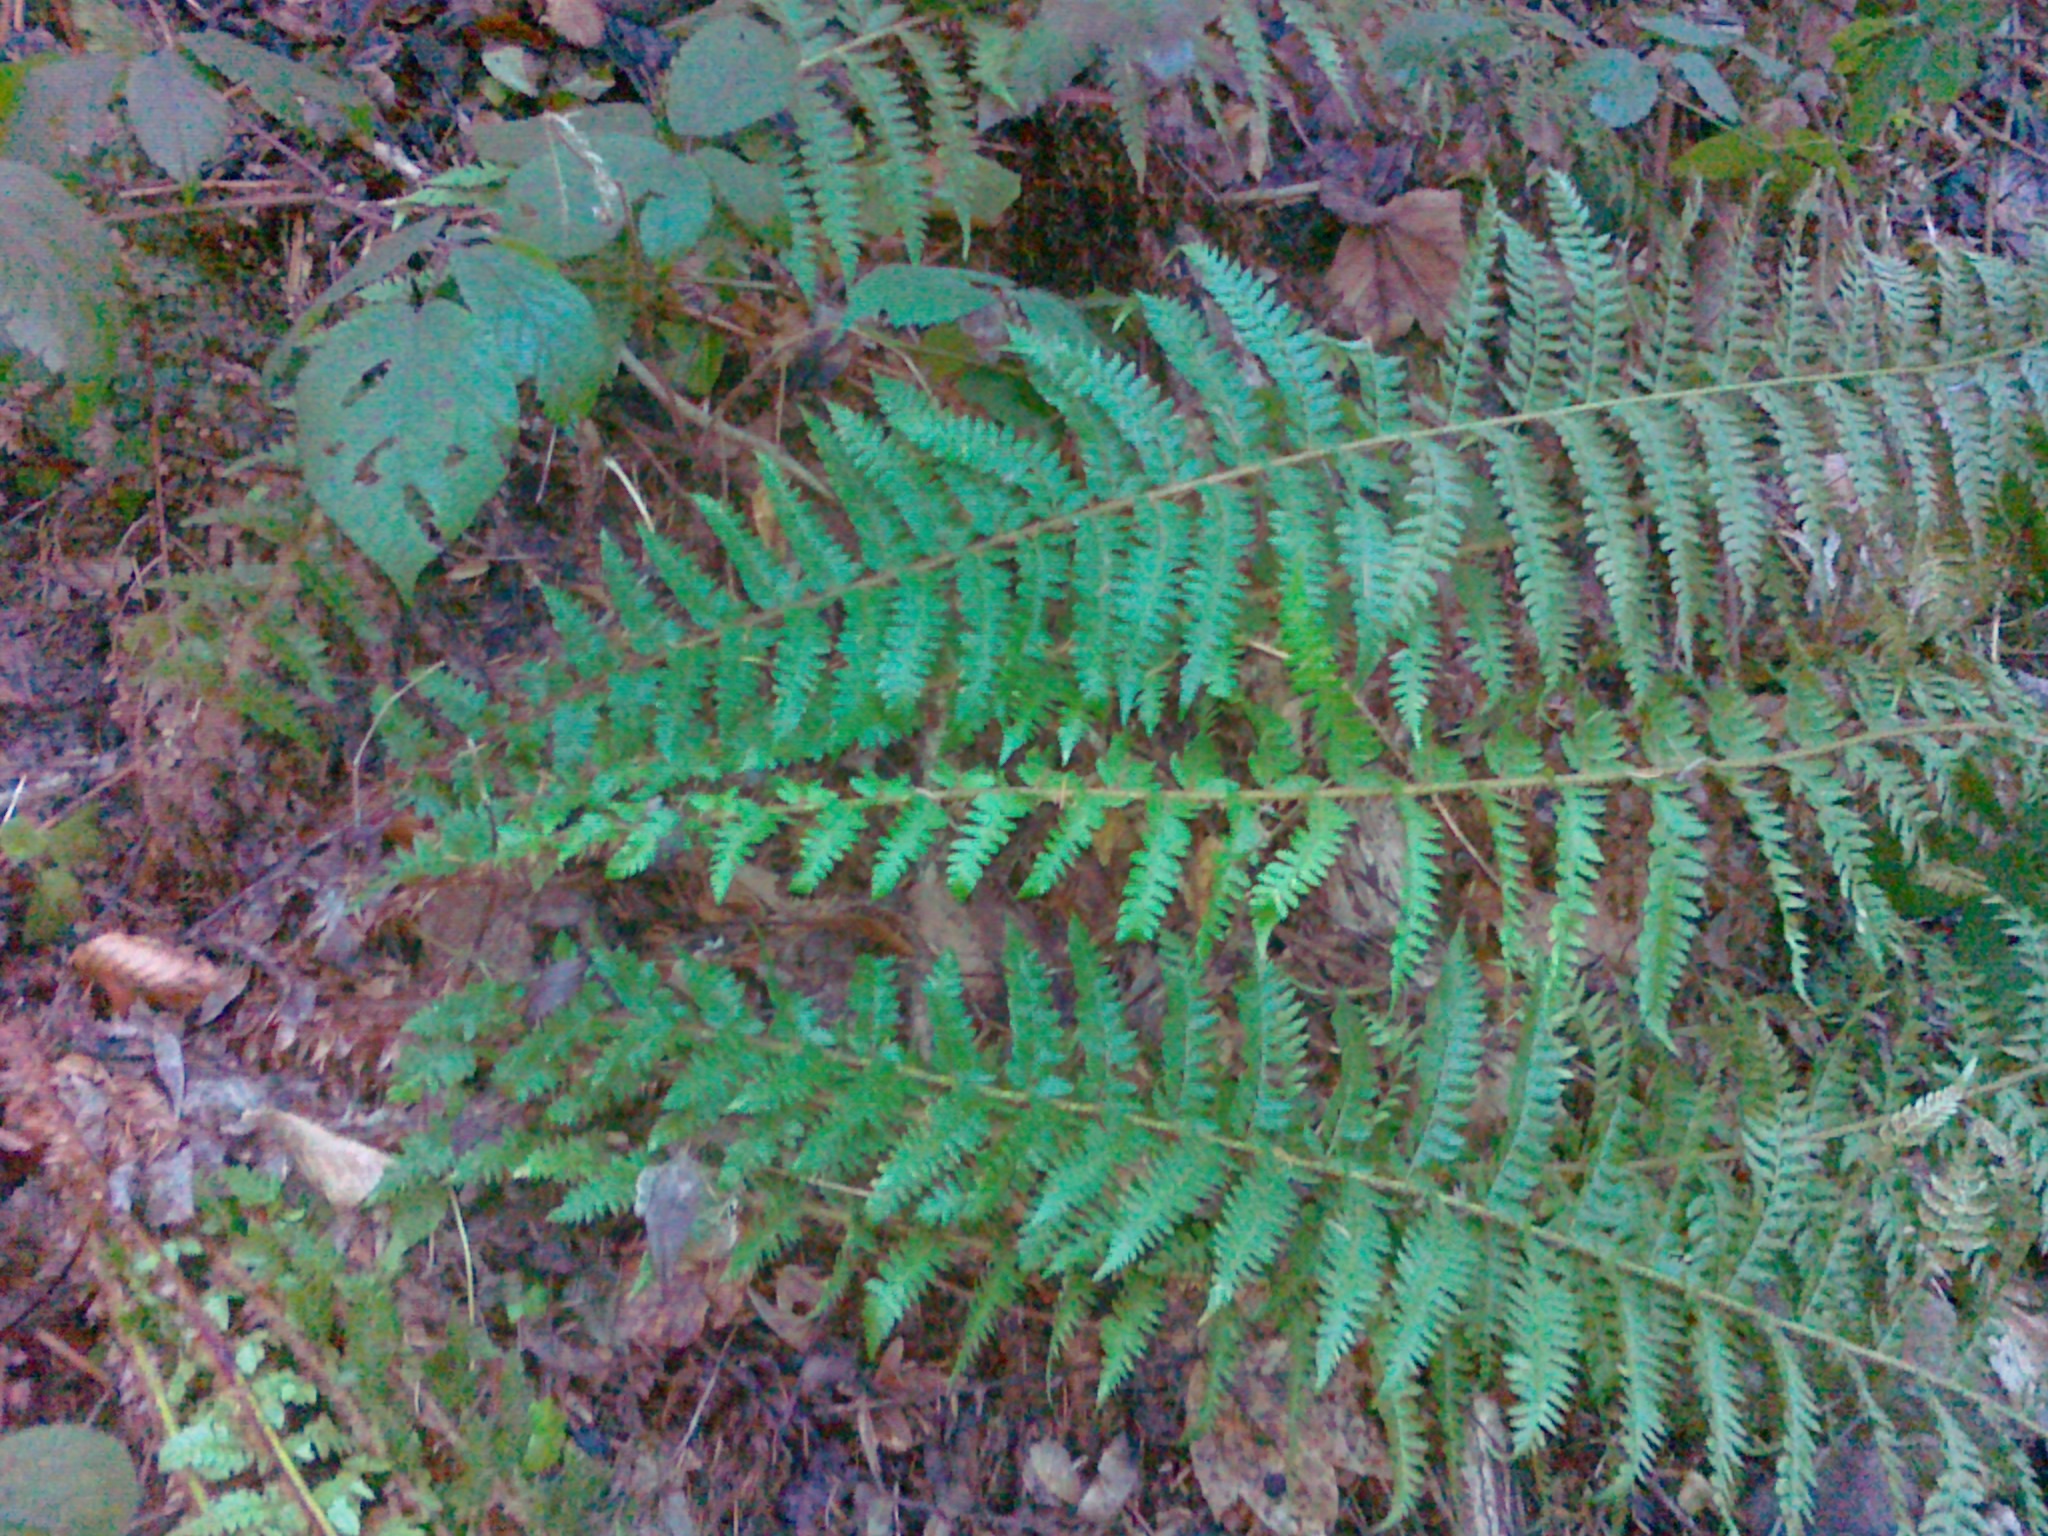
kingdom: Plantae
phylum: Tracheophyta
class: Polypodiopsida
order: Polypodiales
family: Dryopteridaceae
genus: Polystichum
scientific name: Polystichum luerssenii
